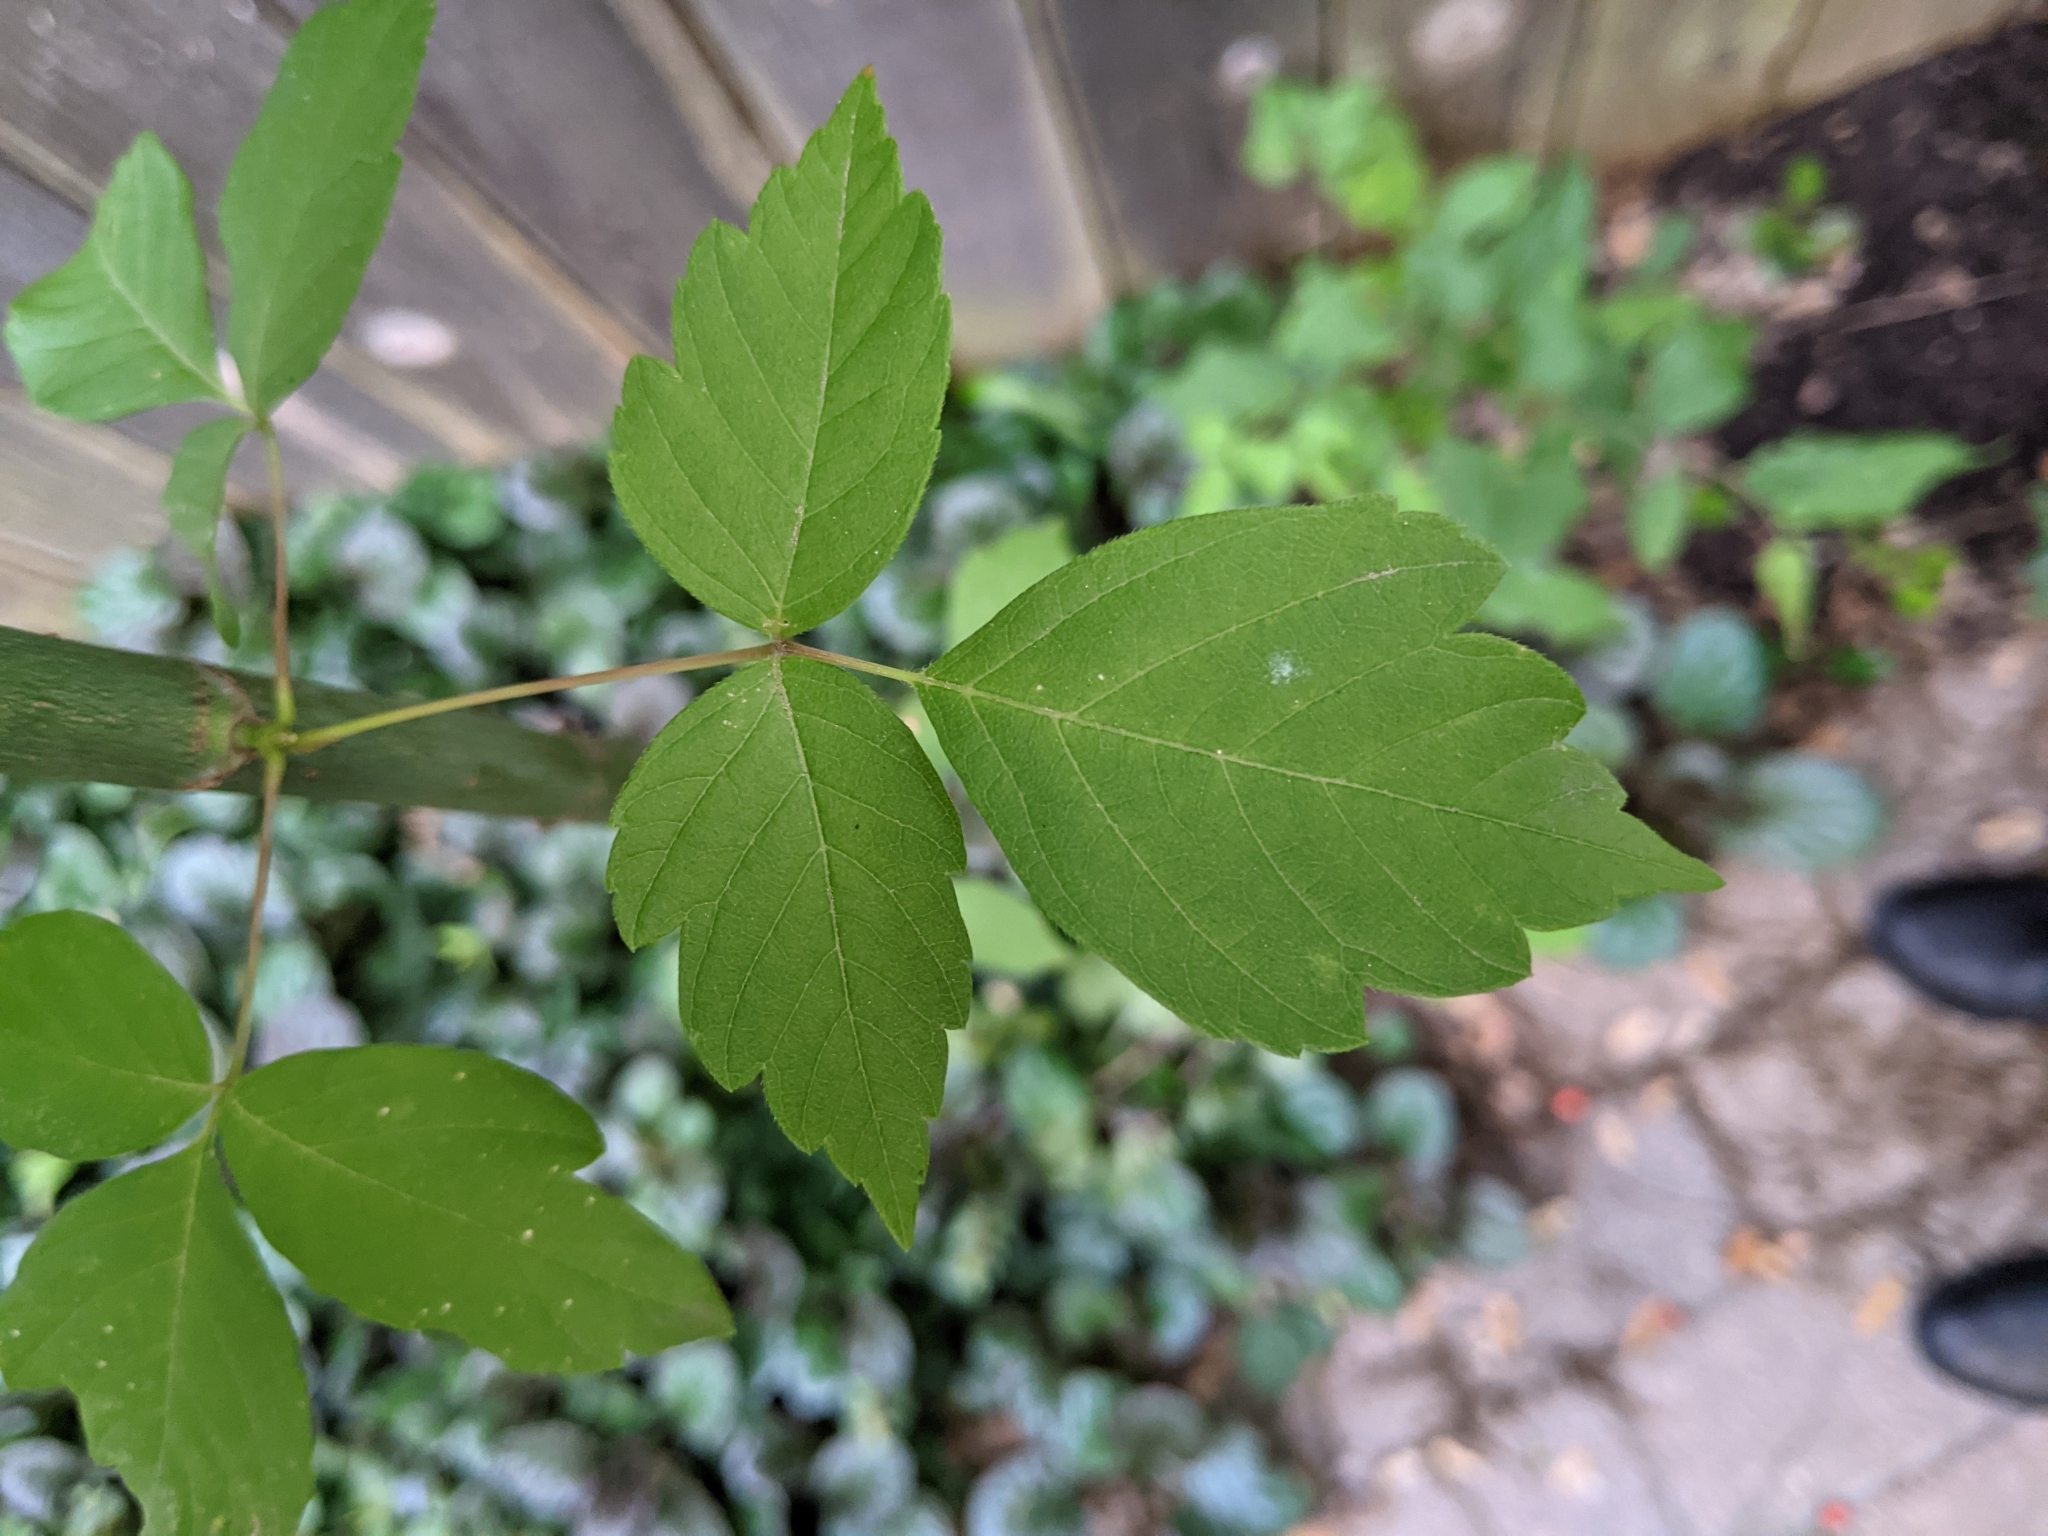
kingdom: Plantae
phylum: Tracheophyta
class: Magnoliopsida
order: Sapindales
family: Sapindaceae
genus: Acer
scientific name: Acer negundo
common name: Ashleaf maple
